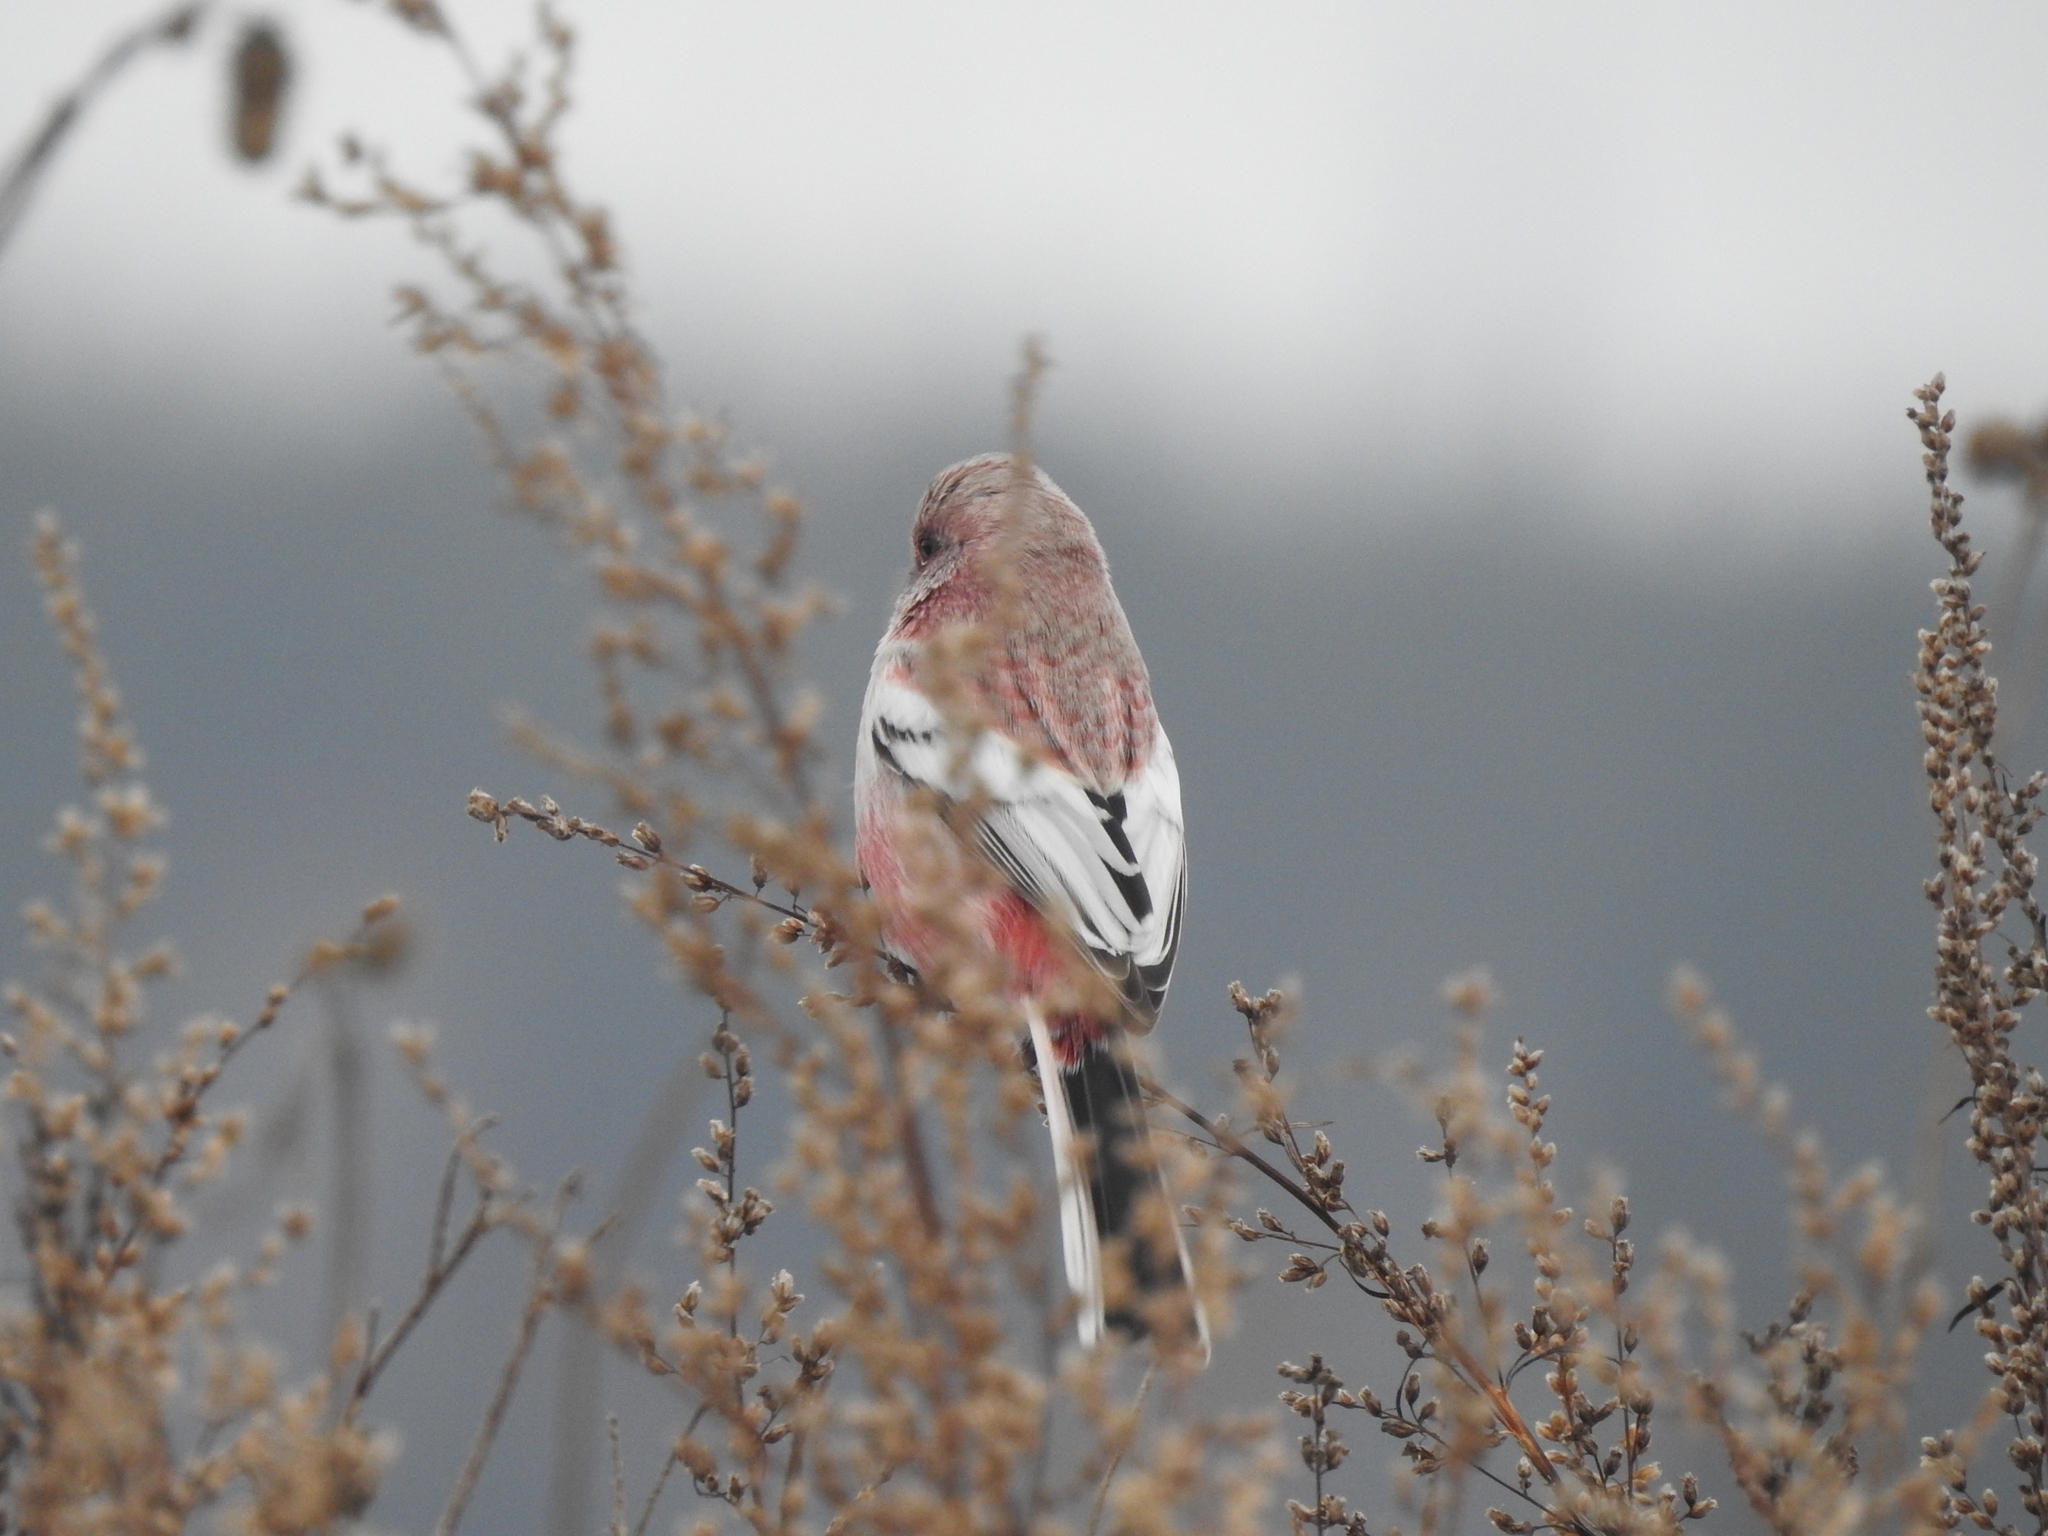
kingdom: Animalia
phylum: Chordata
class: Aves
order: Passeriformes
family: Fringillidae
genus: Carpodacus
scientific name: Carpodacus sibiricus
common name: Long-tailed rosefinch
